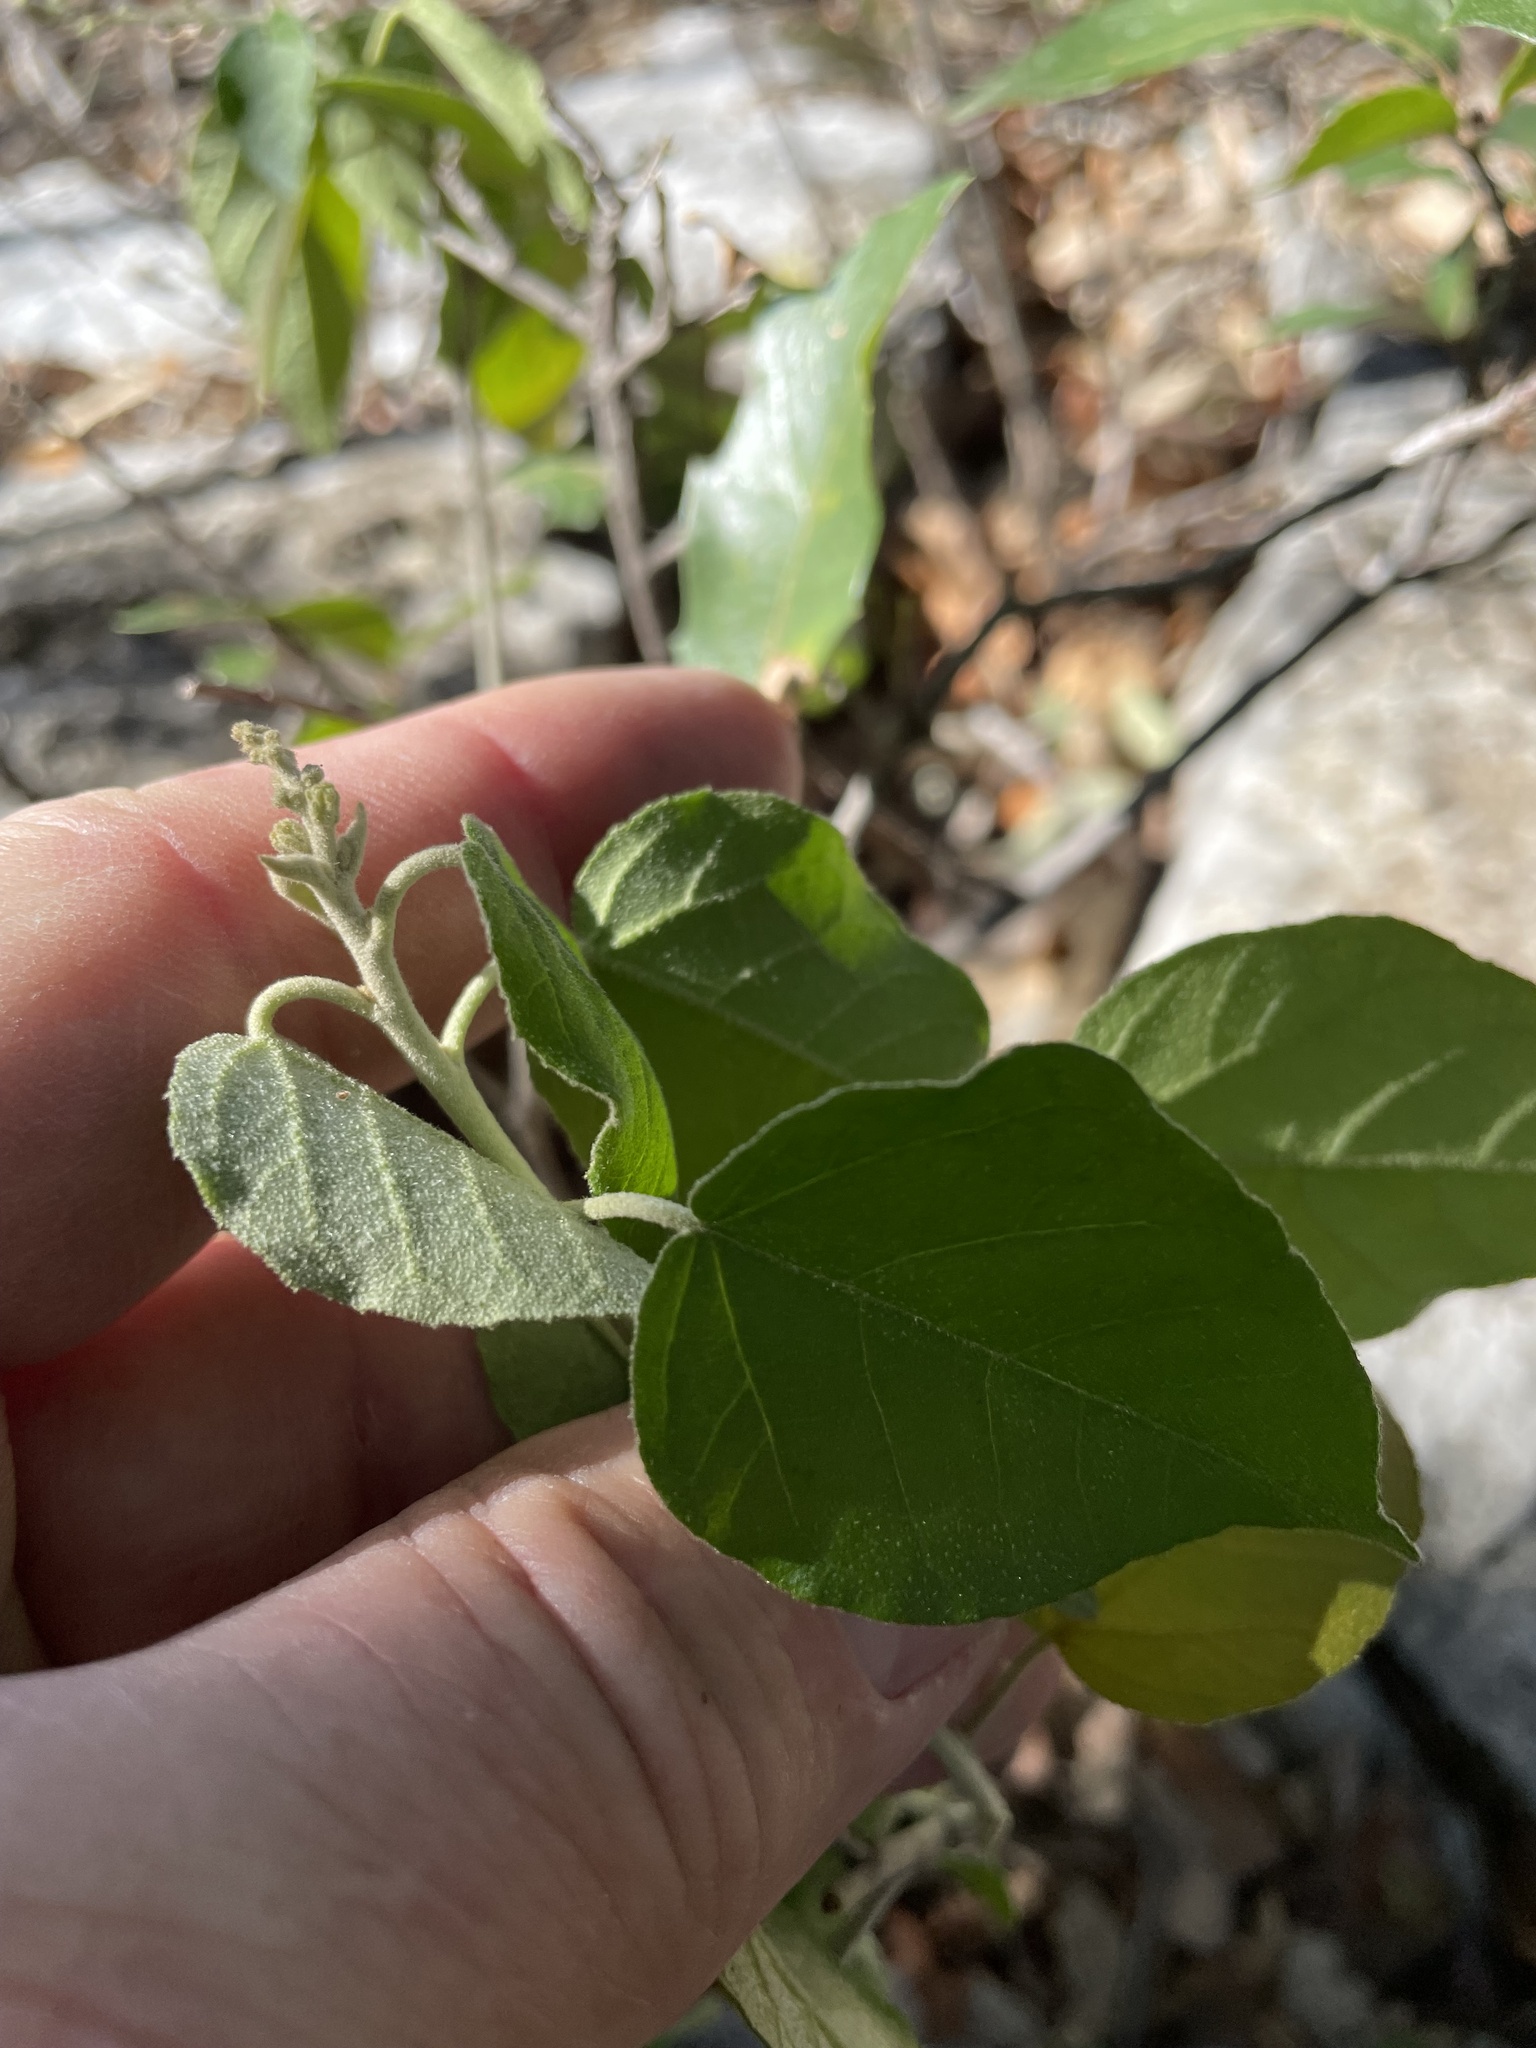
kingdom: Plantae
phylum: Tracheophyta
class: Magnoliopsida
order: Malpighiales
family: Euphorbiaceae
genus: Croton
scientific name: Croton fruticulosus
